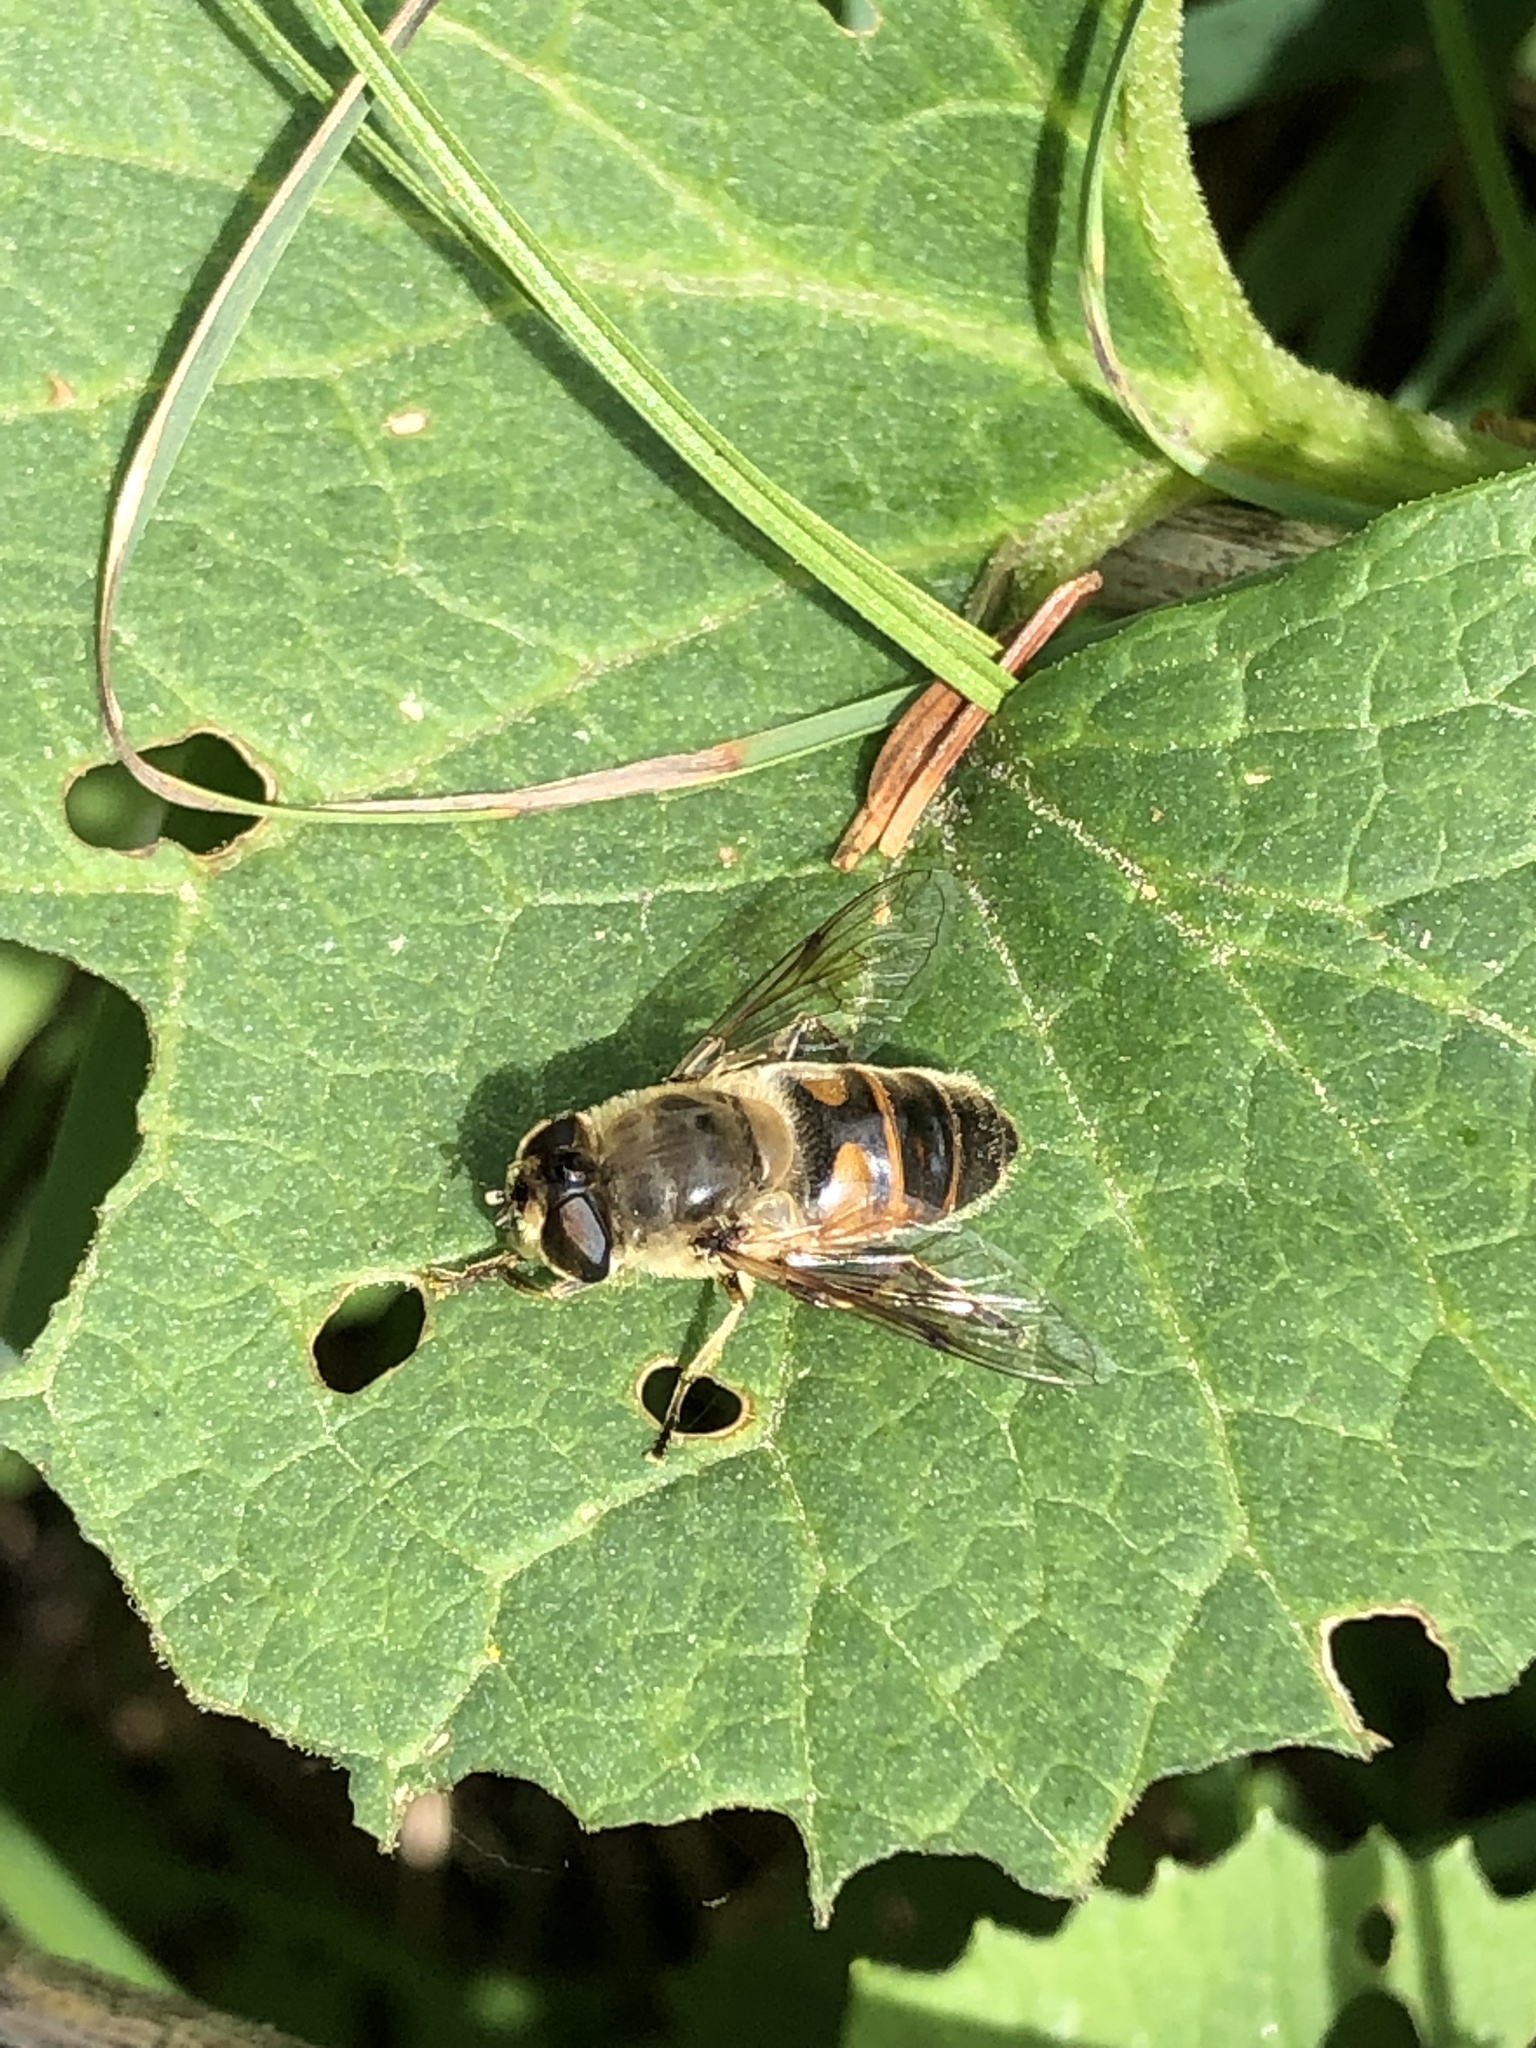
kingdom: Animalia
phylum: Arthropoda
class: Insecta
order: Diptera
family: Syrphidae
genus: Eristalis
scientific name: Eristalis tenax
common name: Drone fly
